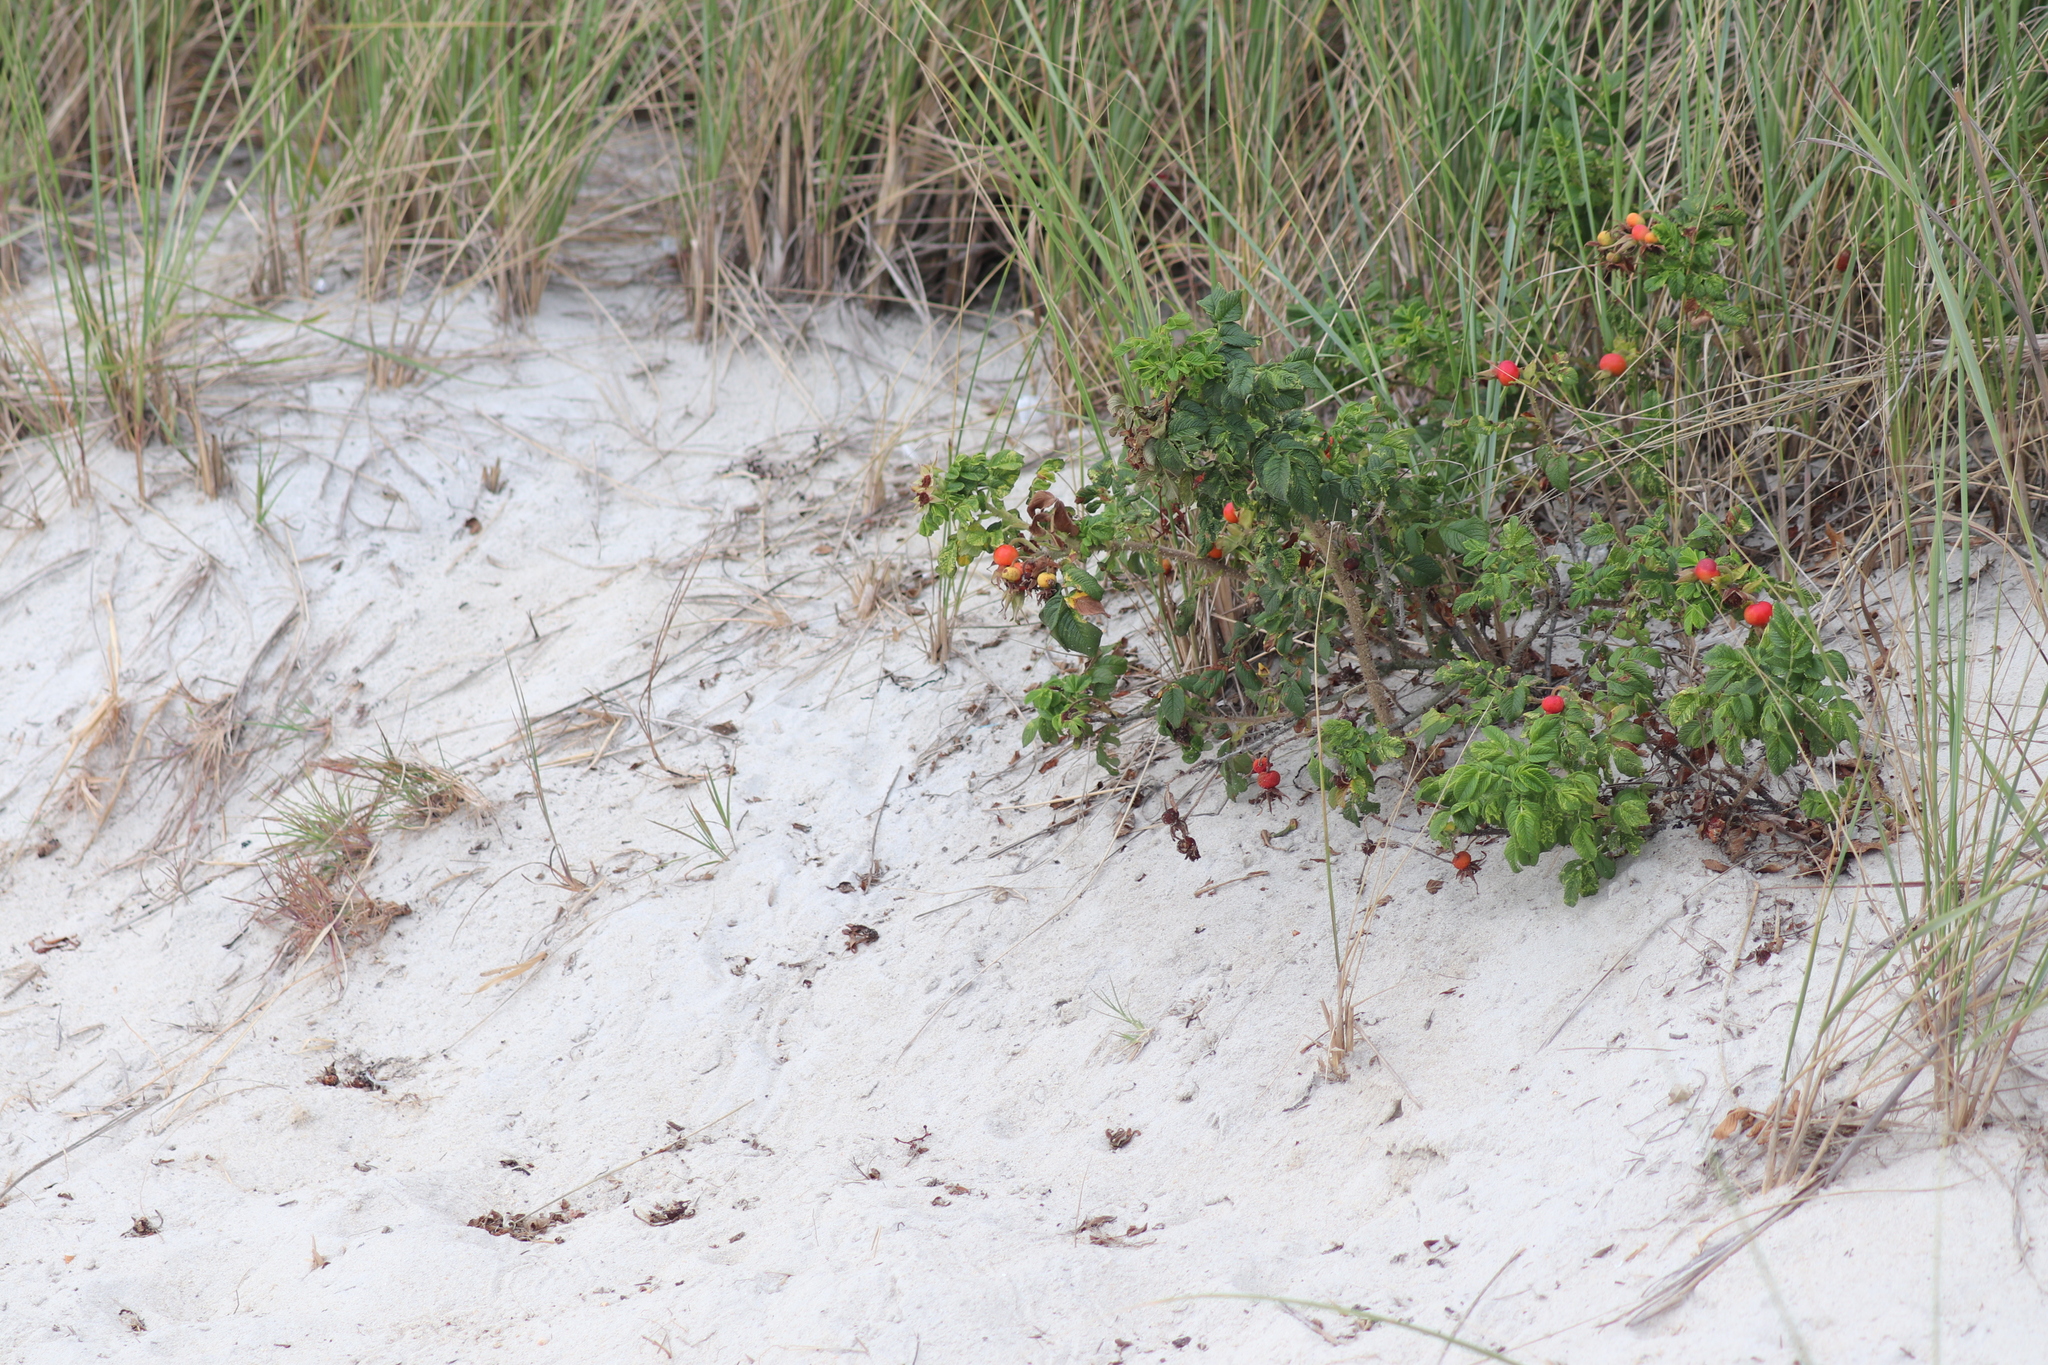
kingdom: Plantae
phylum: Tracheophyta
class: Magnoliopsida
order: Rosales
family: Rosaceae
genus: Rosa
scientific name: Rosa rugosa
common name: Japanese rose
